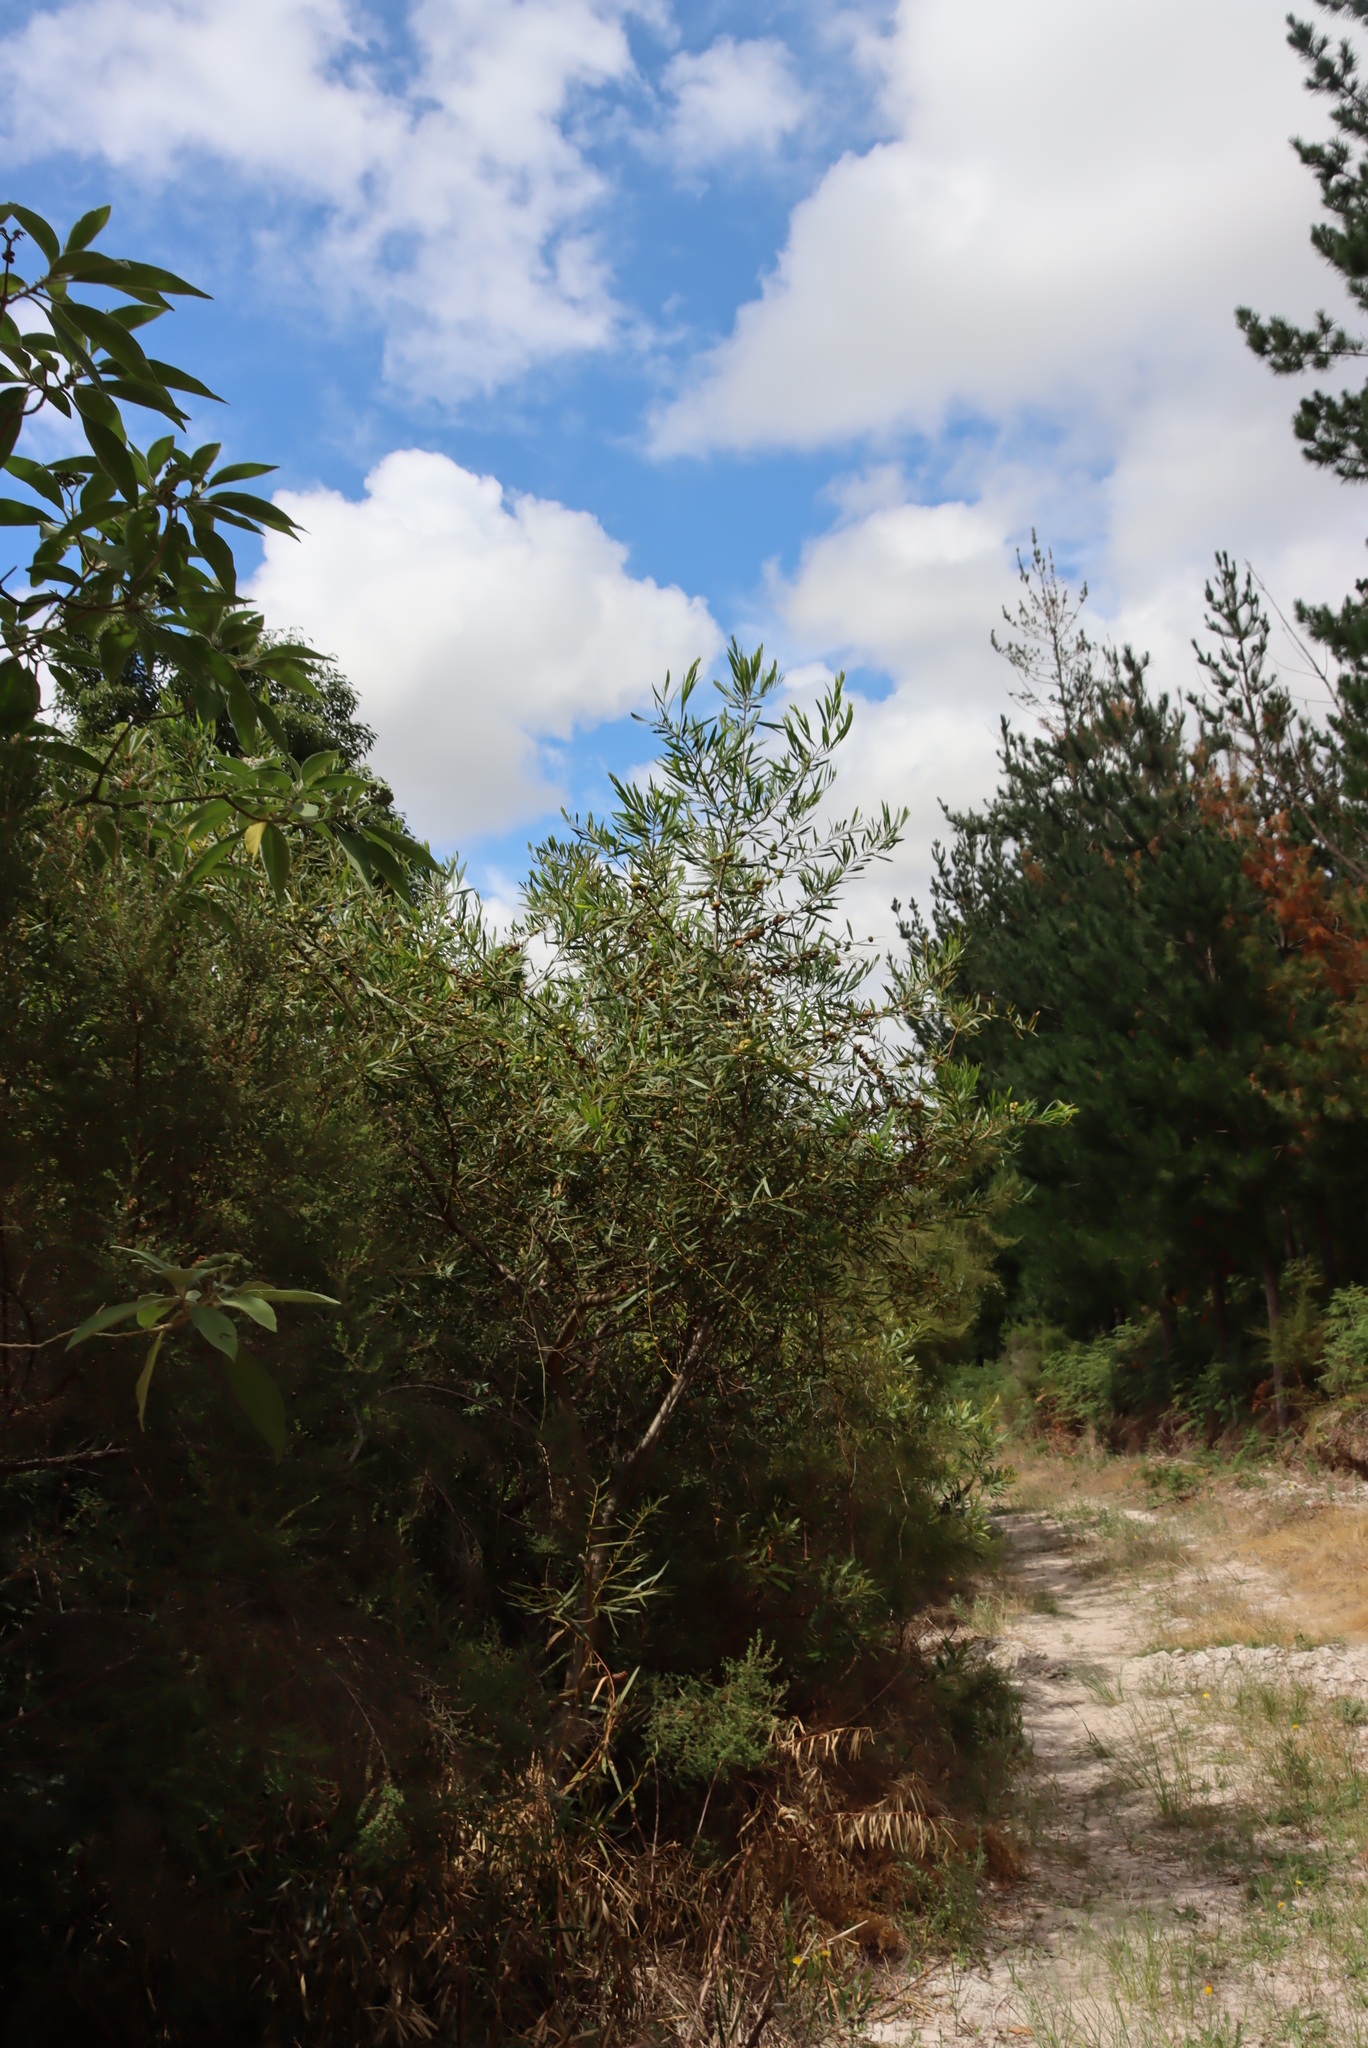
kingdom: Plantae
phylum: Tracheophyta
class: Magnoliopsida
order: Fabales
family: Fabaceae
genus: Acacia
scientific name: Acacia longifolia
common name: Sydney golden wattle
